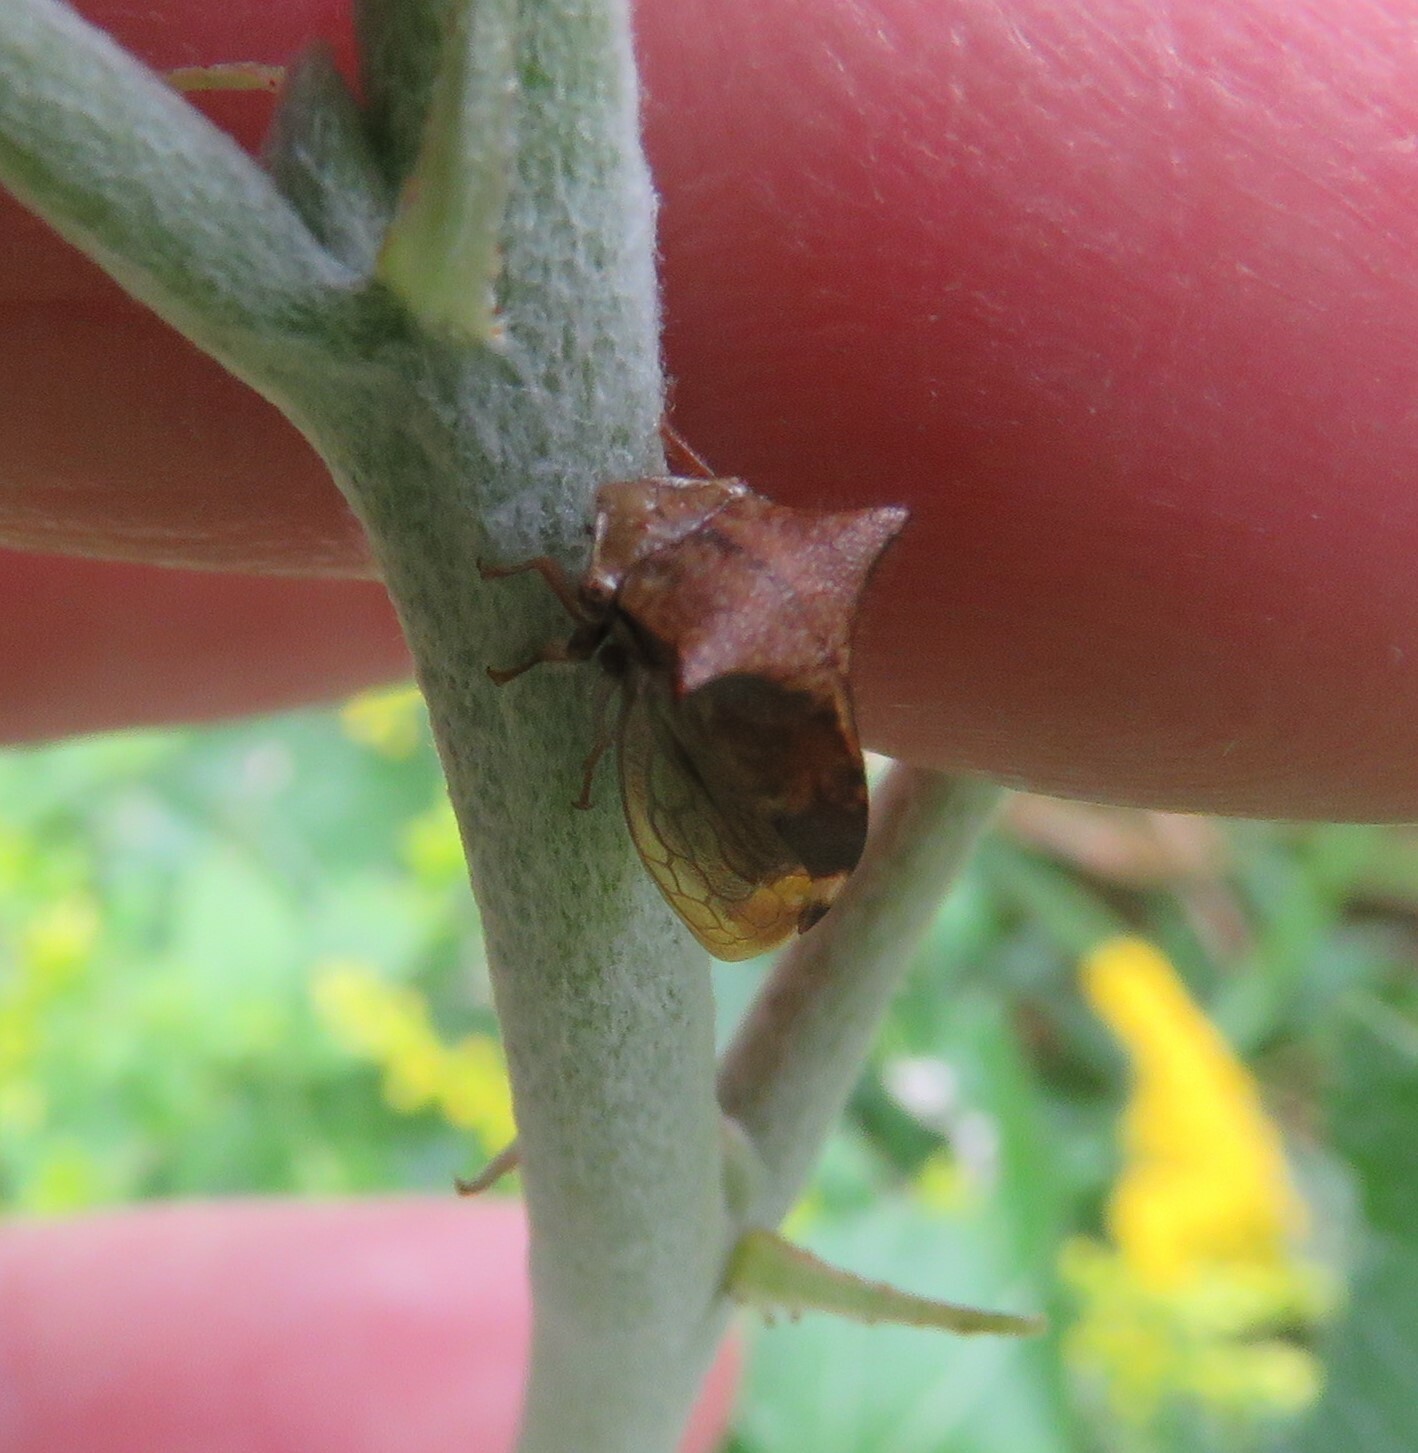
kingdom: Animalia
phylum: Arthropoda
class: Insecta
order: Hemiptera
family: Membracidae
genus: Stictocephala
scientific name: Stictocephala diceros
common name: Two-horned treehopper
